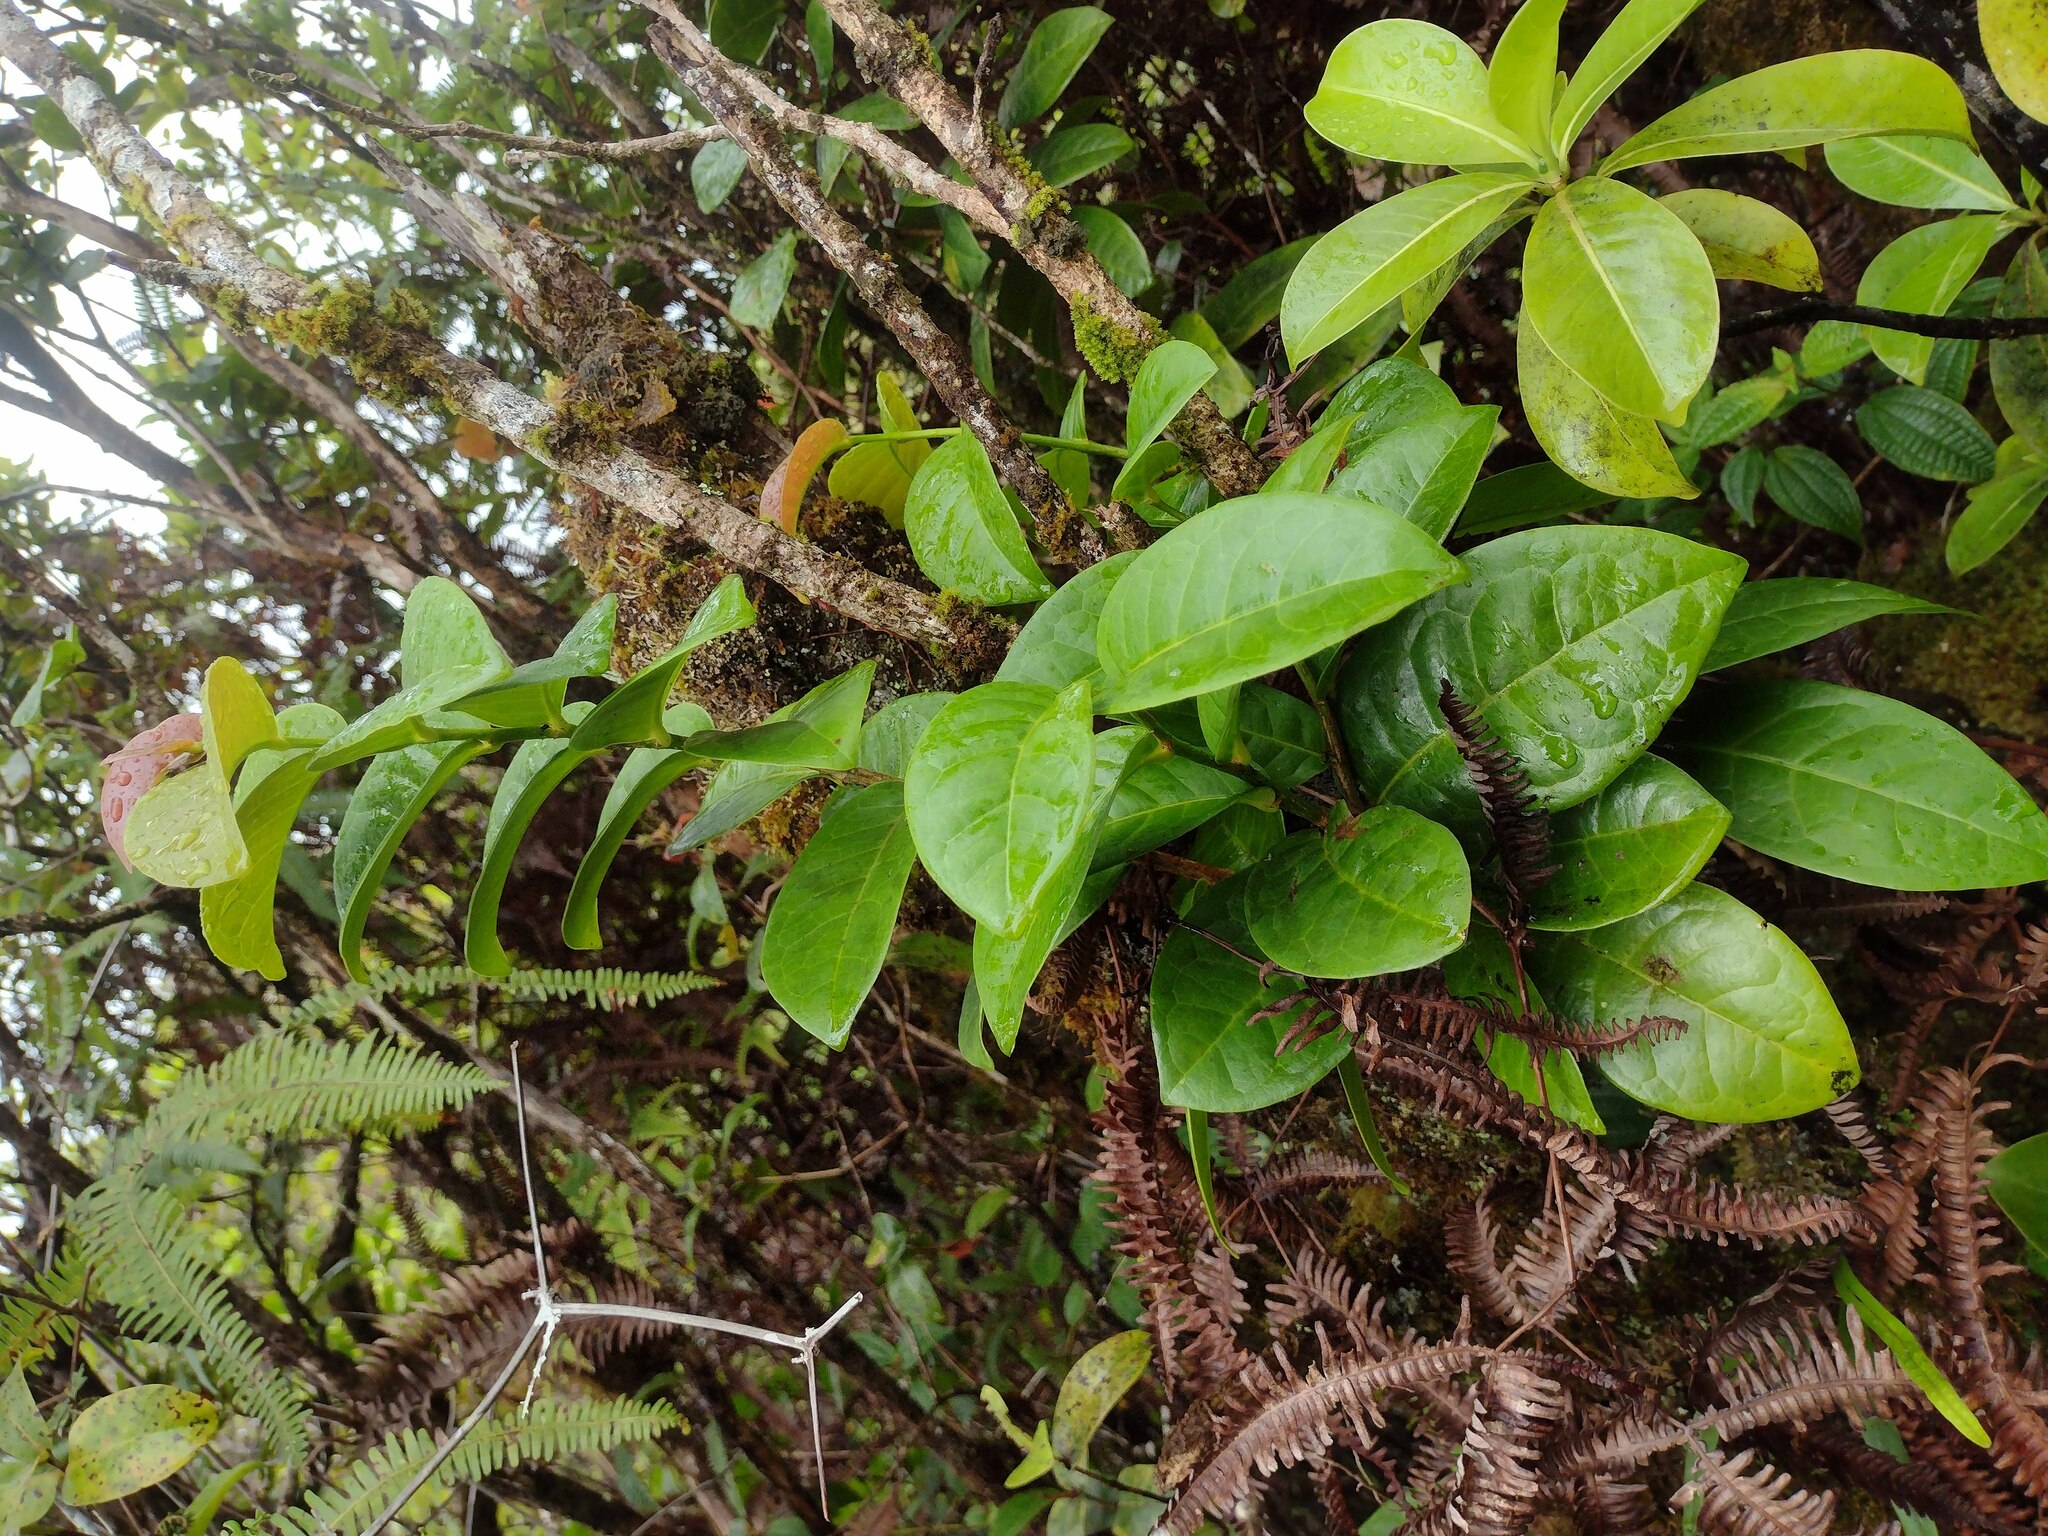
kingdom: Plantae
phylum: Tracheophyta
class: Magnoliopsida
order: Malpighiales
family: Phyllanthaceae
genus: Antidesma
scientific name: Antidesma platyphyllum
